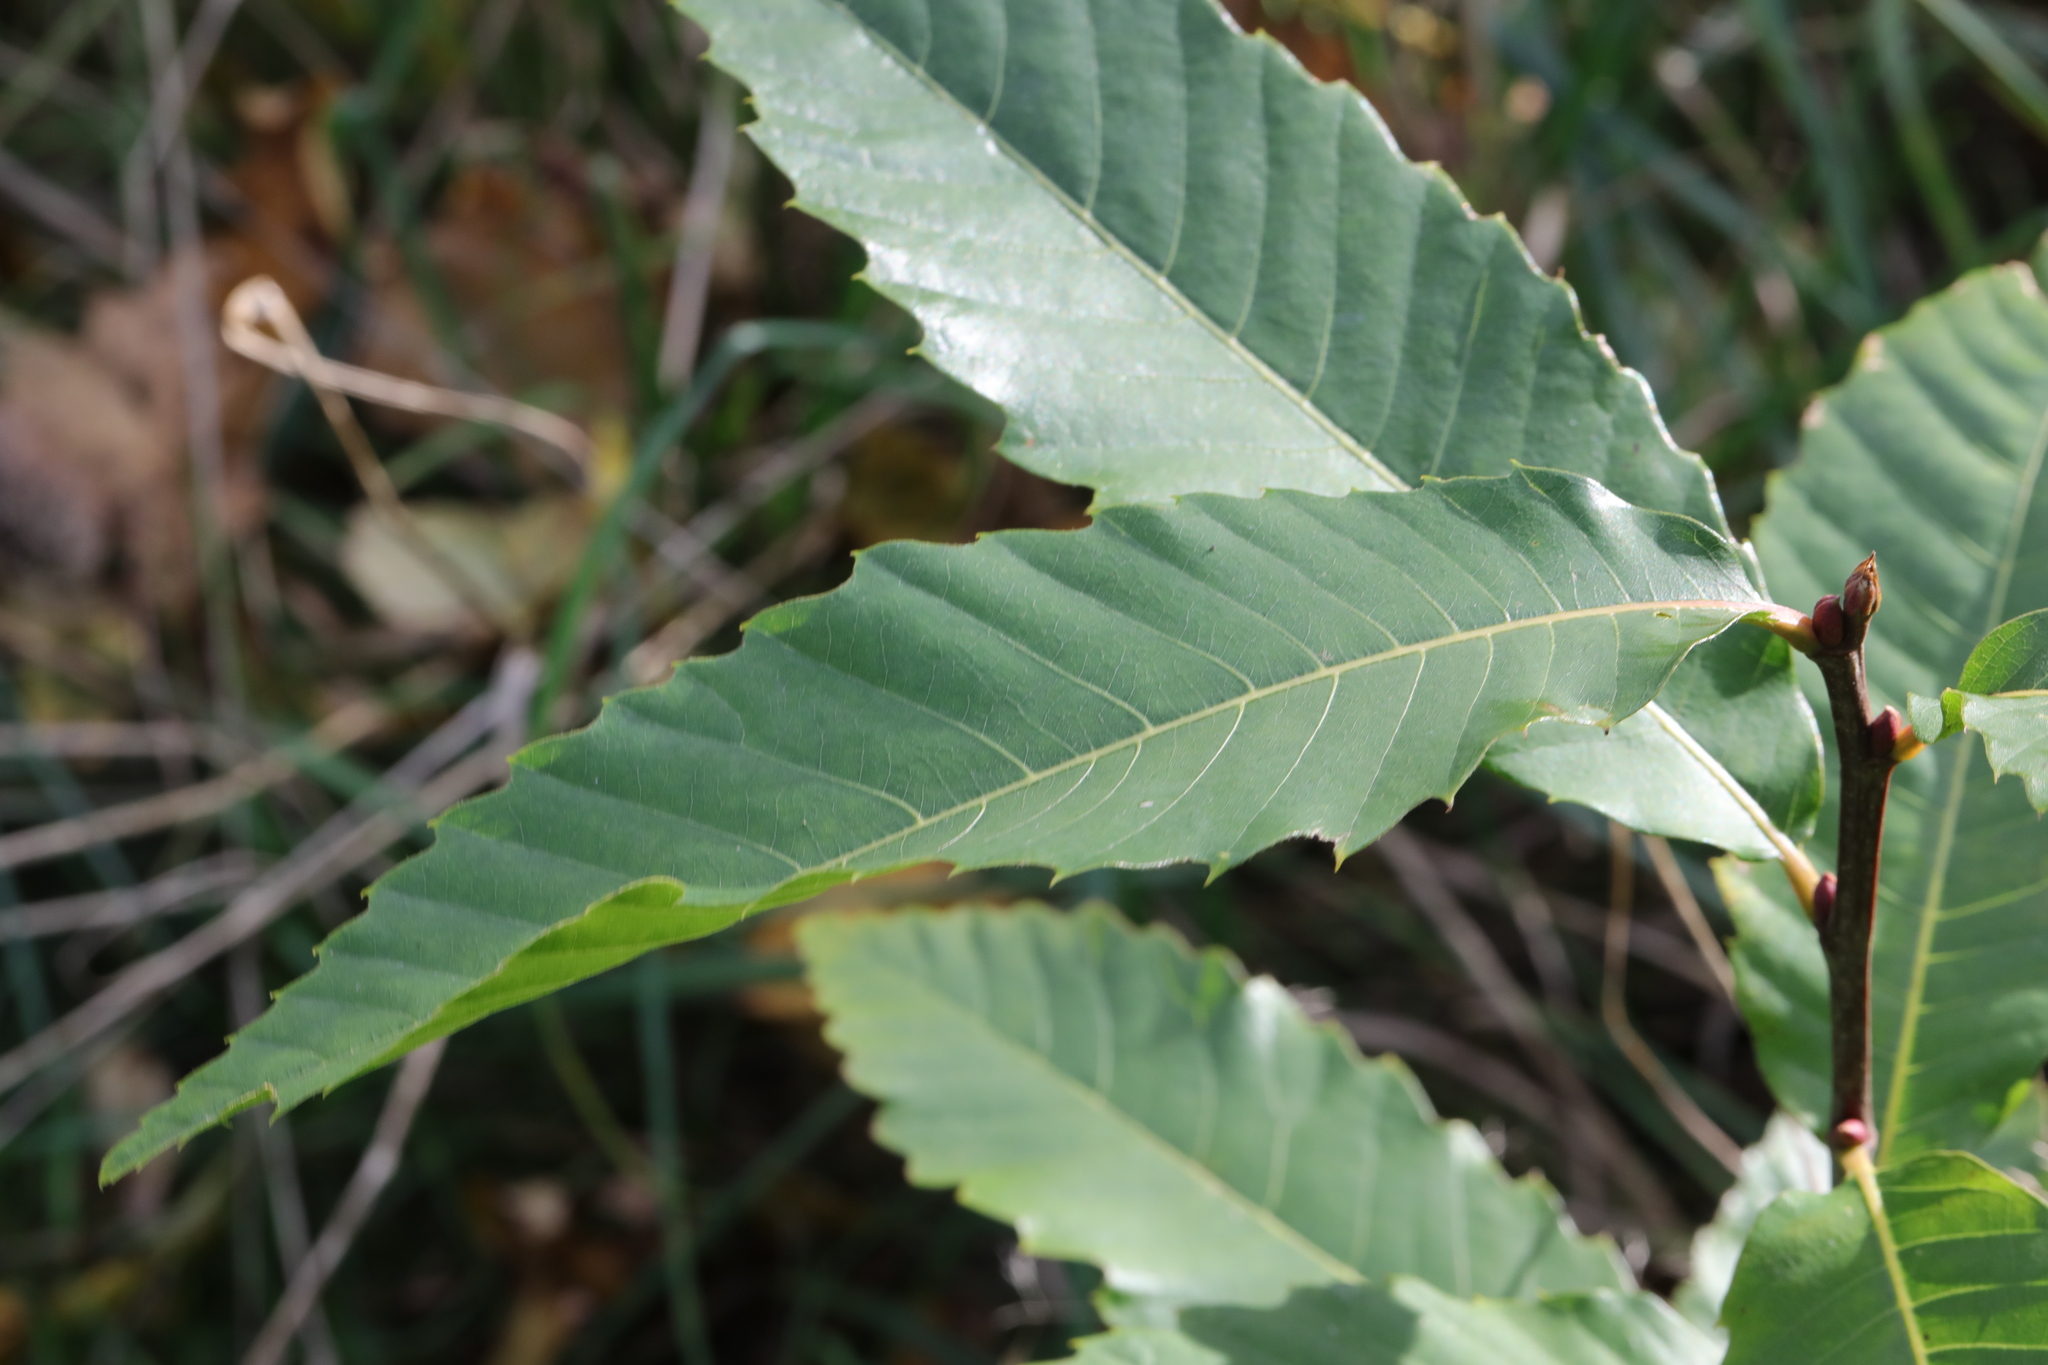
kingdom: Plantae
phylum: Tracheophyta
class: Magnoliopsida
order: Fagales
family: Fagaceae
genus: Castanea
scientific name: Castanea sativa
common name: Sweet chestnut
